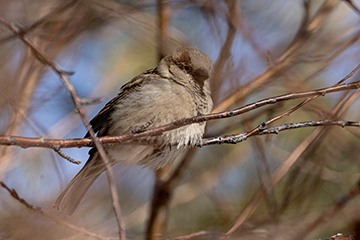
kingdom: Animalia
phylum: Chordata
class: Aves
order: Passeriformes
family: Passeridae
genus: Passer
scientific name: Passer domesticus
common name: House sparrow
